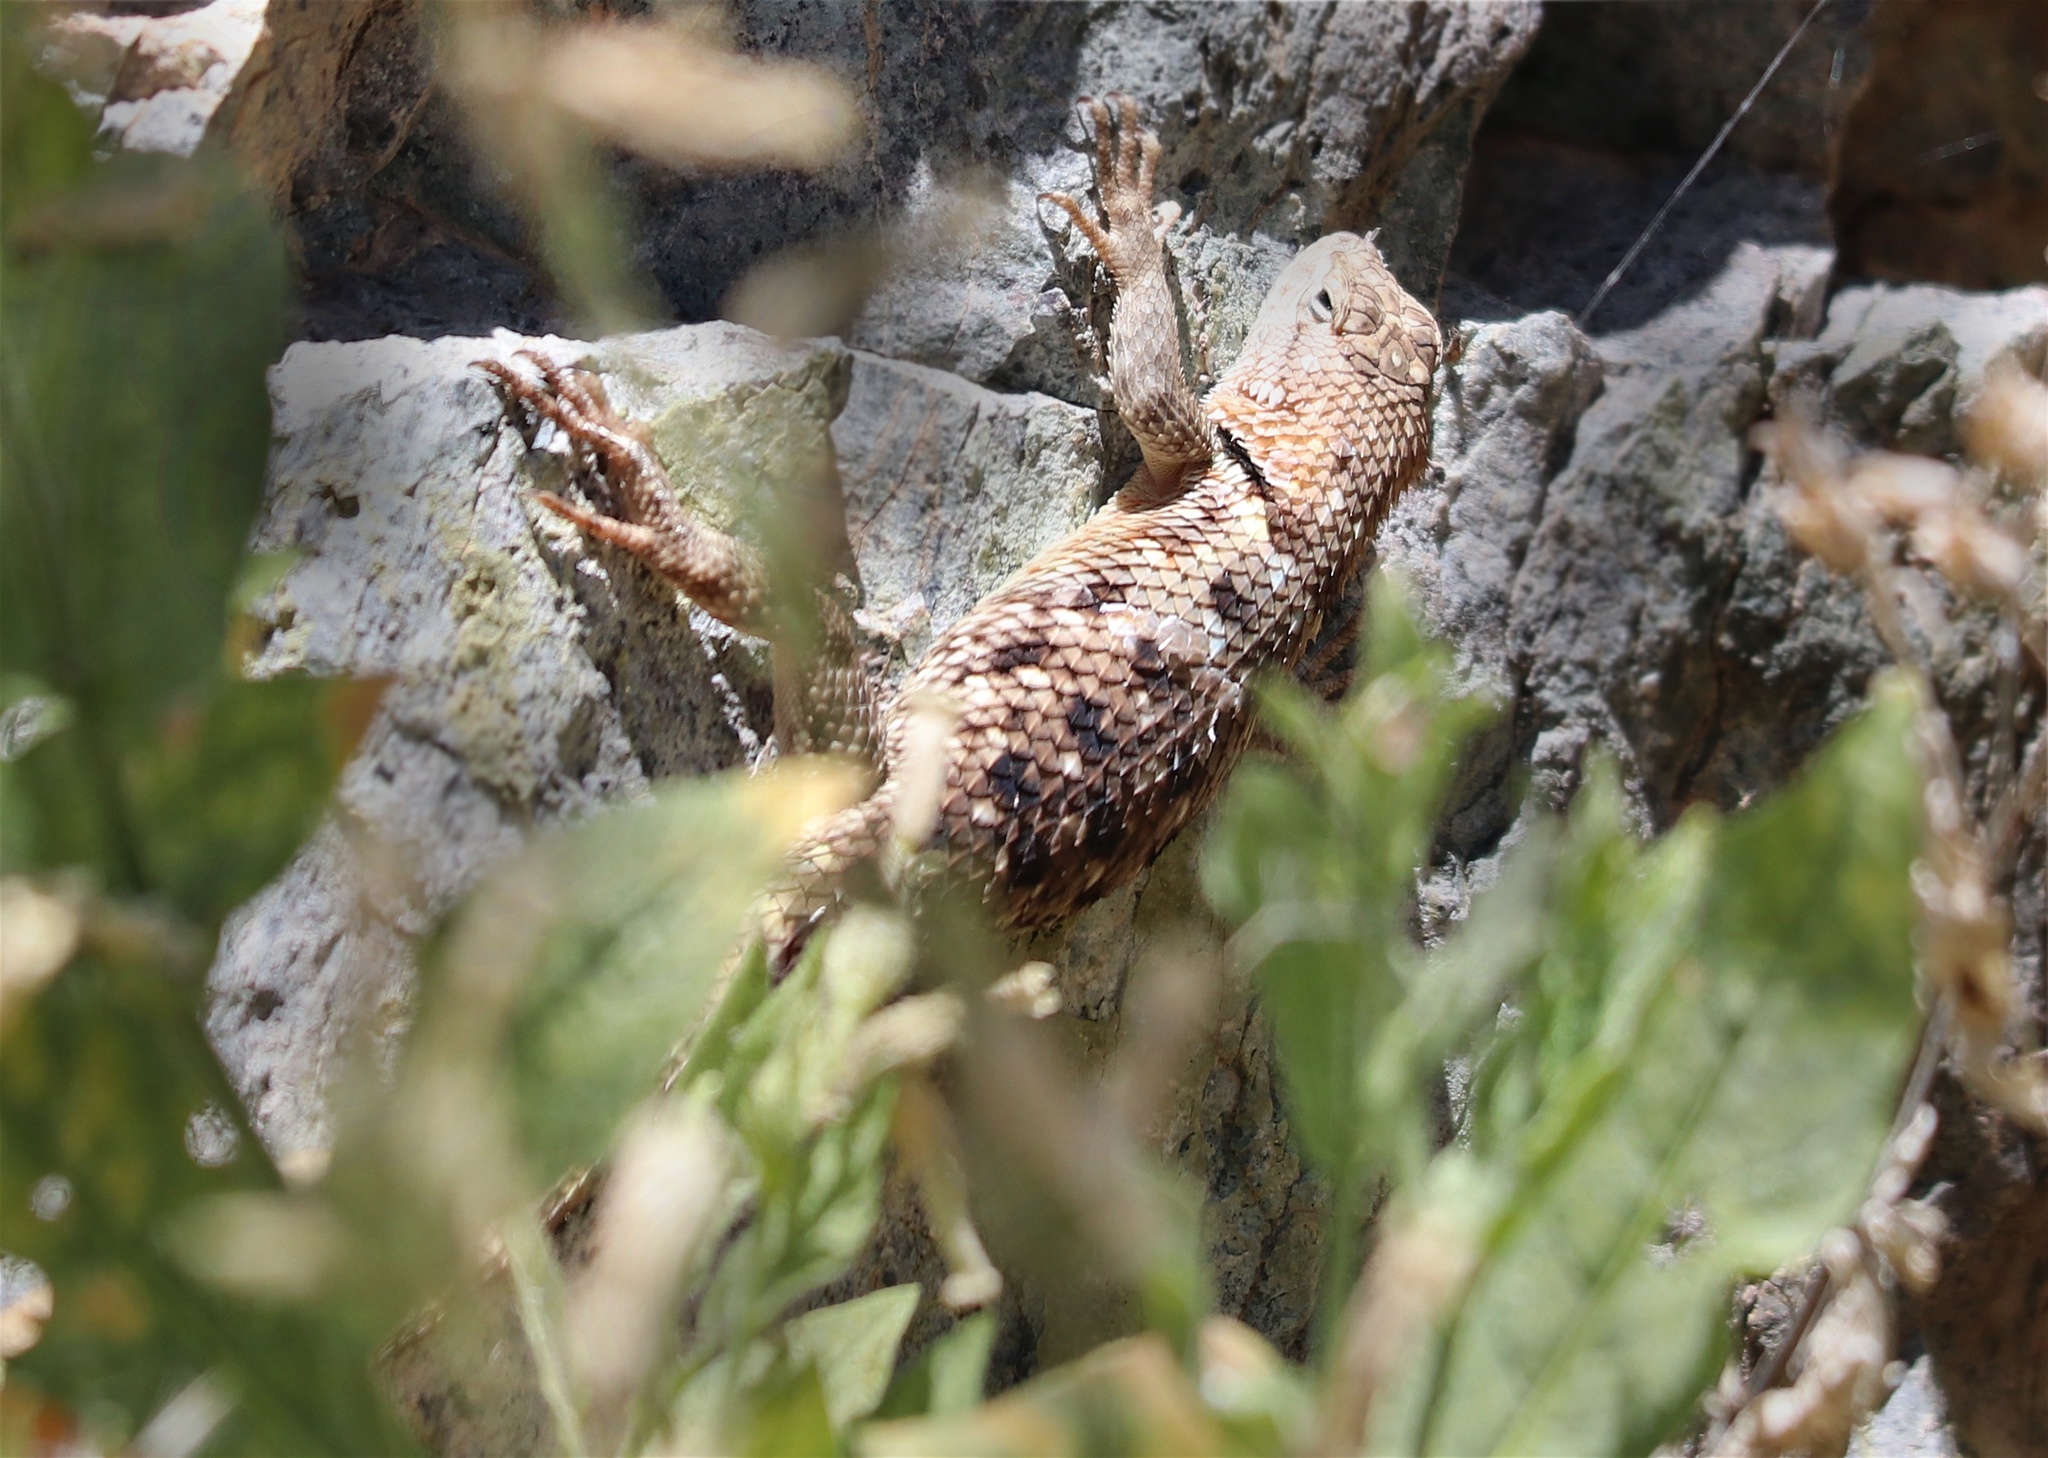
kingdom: Animalia
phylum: Chordata
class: Squamata
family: Phrynosomatidae
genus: Sceloporus
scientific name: Sceloporus uniformis
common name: Yellow-backed spiny lizard
